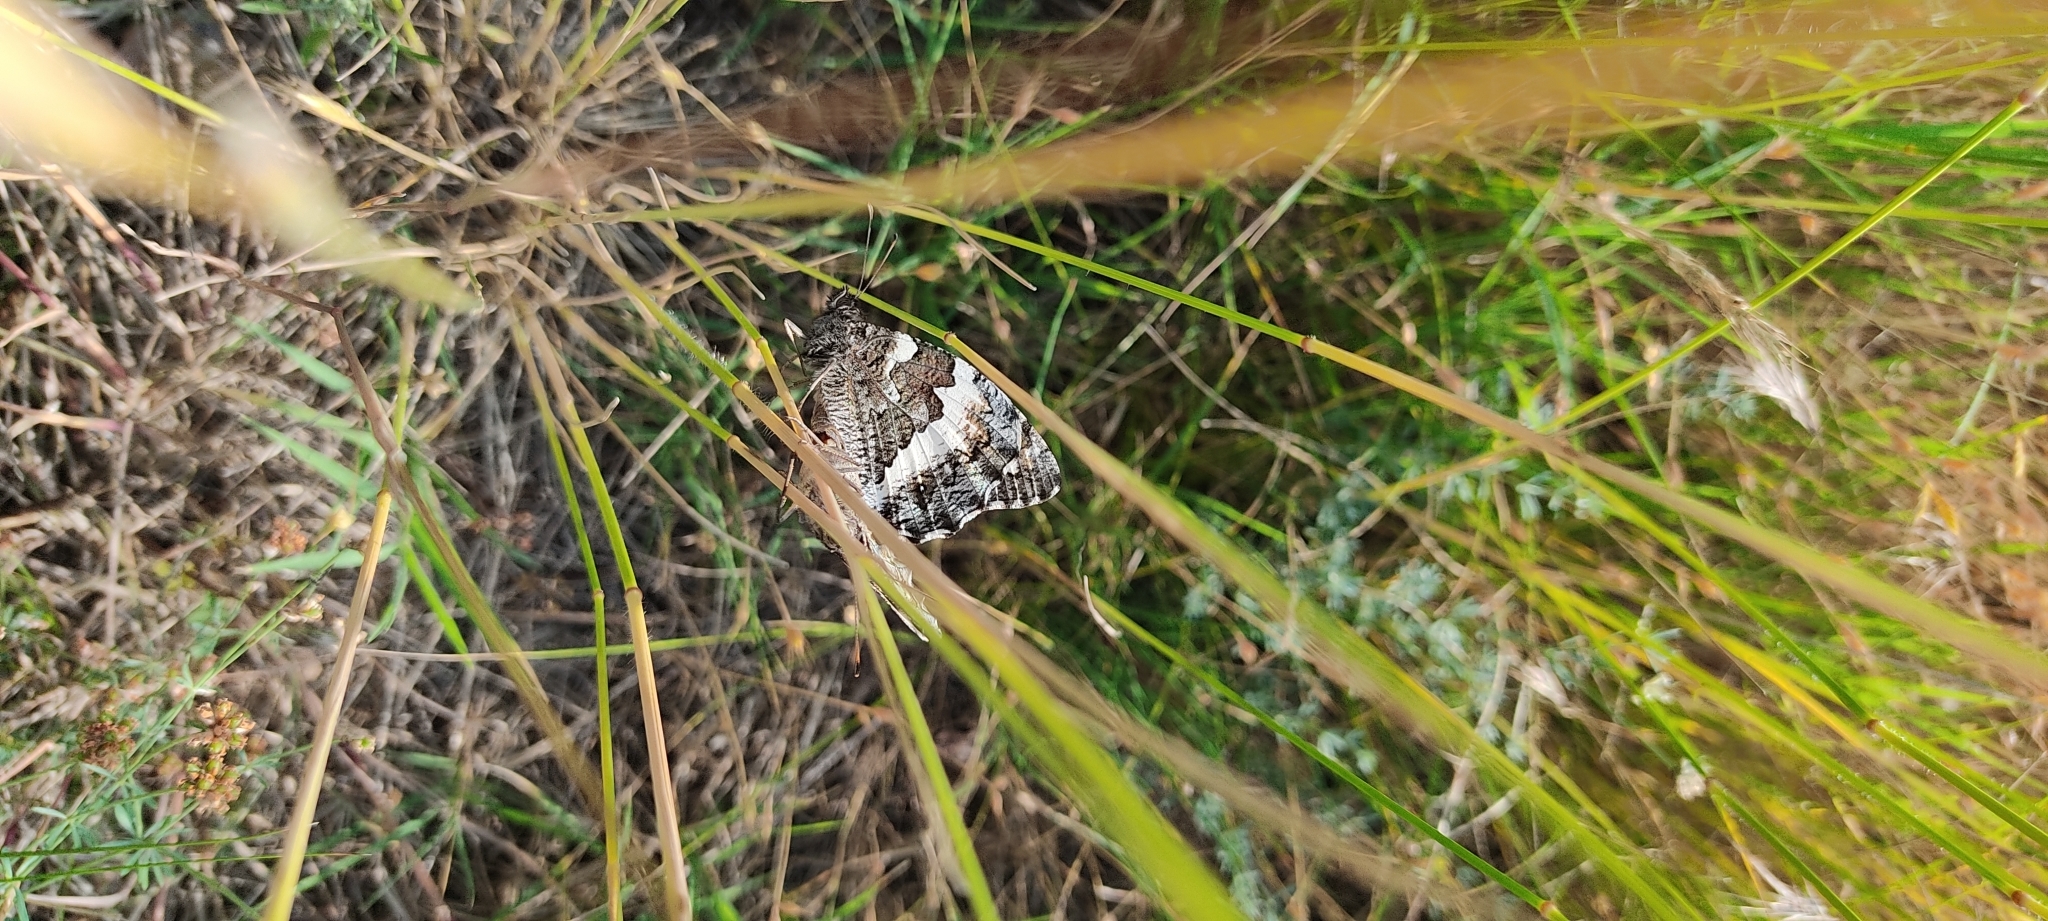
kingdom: Animalia
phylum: Arthropoda
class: Insecta
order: Lepidoptera
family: Lycaenidae
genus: Loweia
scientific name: Loweia tityrus
